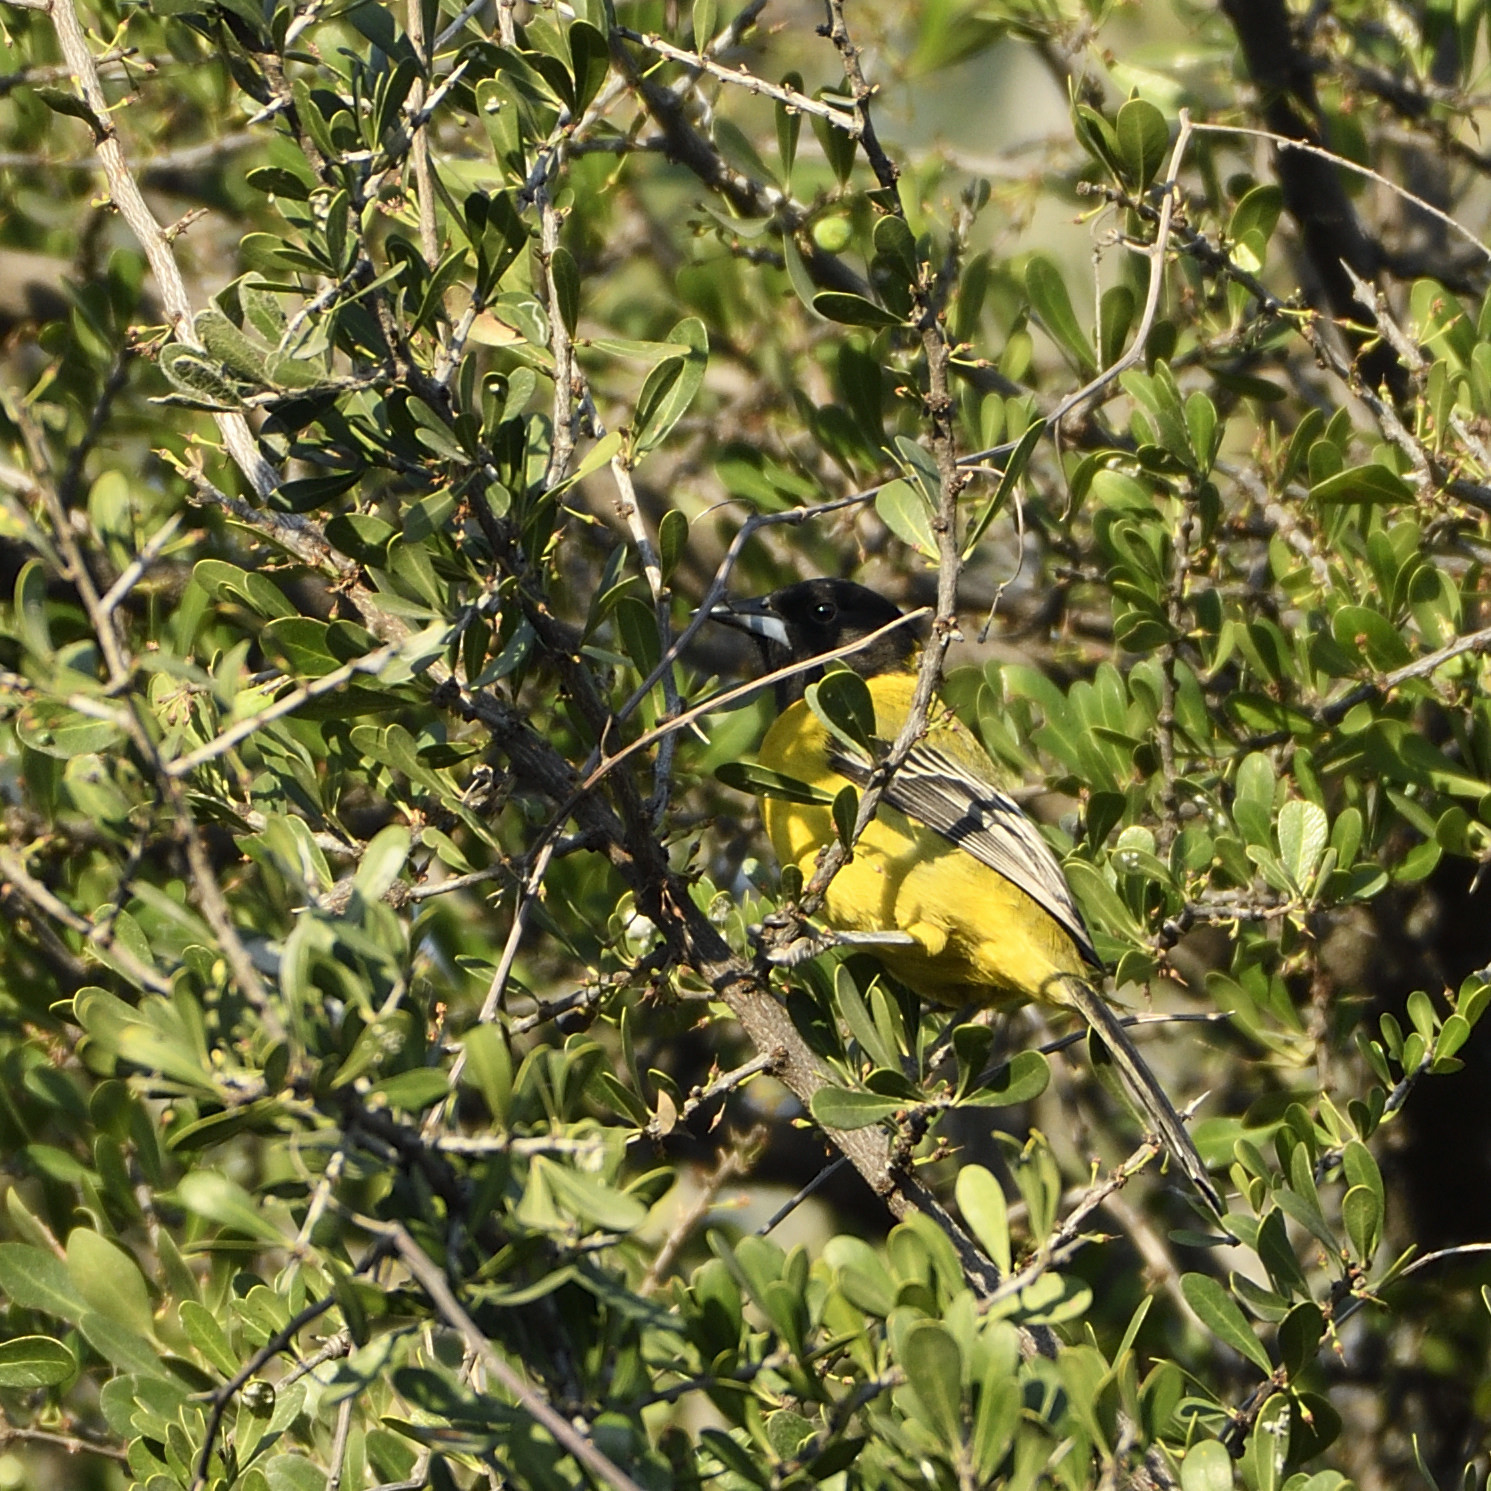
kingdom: Animalia
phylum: Chordata
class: Aves
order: Passeriformes
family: Icteridae
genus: Icterus
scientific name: Icterus graduacauda
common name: Audubon's oriole
